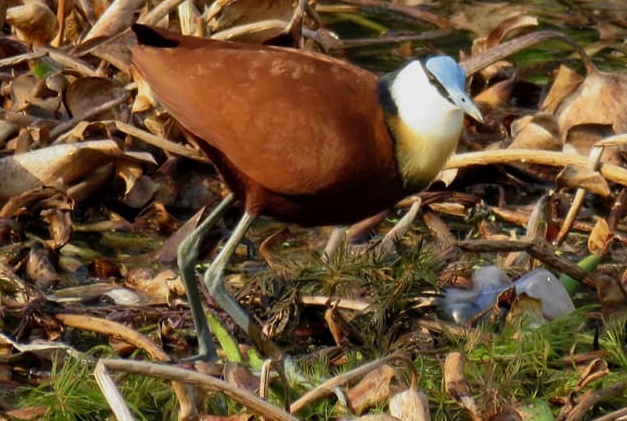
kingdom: Animalia
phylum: Chordata
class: Aves
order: Charadriiformes
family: Jacanidae
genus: Actophilornis
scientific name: Actophilornis africanus
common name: African jacana
